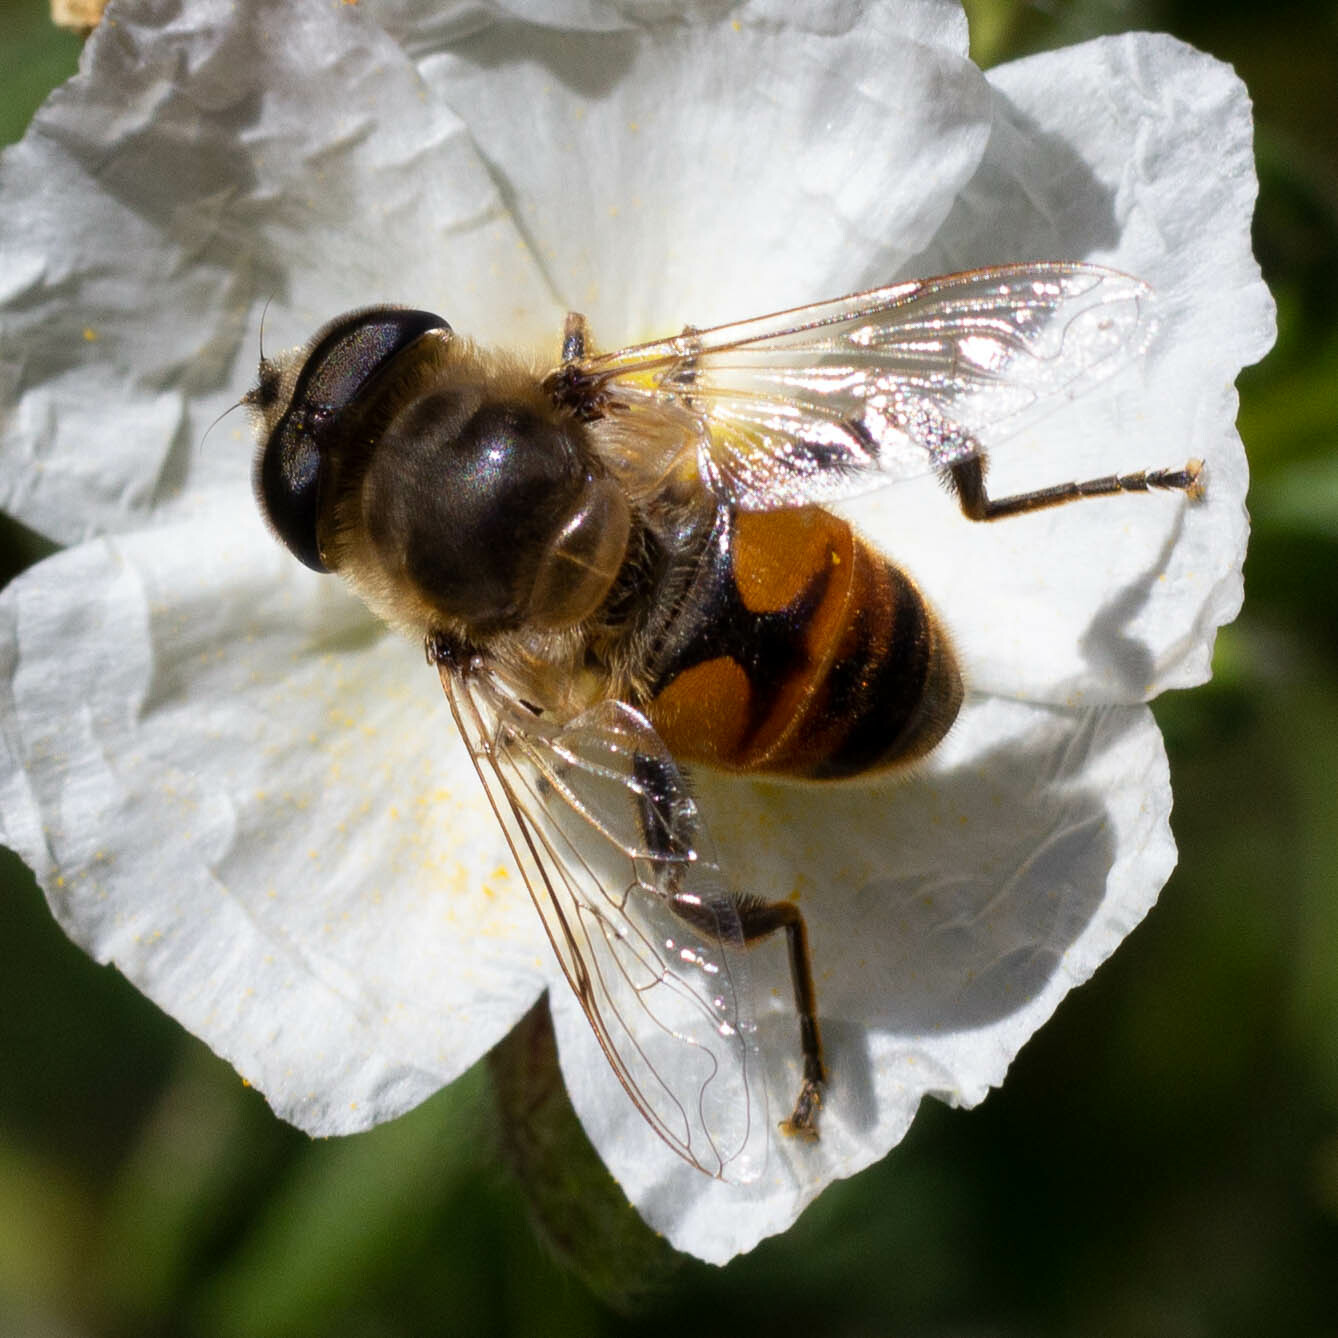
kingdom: Animalia
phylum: Arthropoda
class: Insecta
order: Diptera
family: Syrphidae
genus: Eristalis
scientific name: Eristalis tenax
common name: Drone fly
